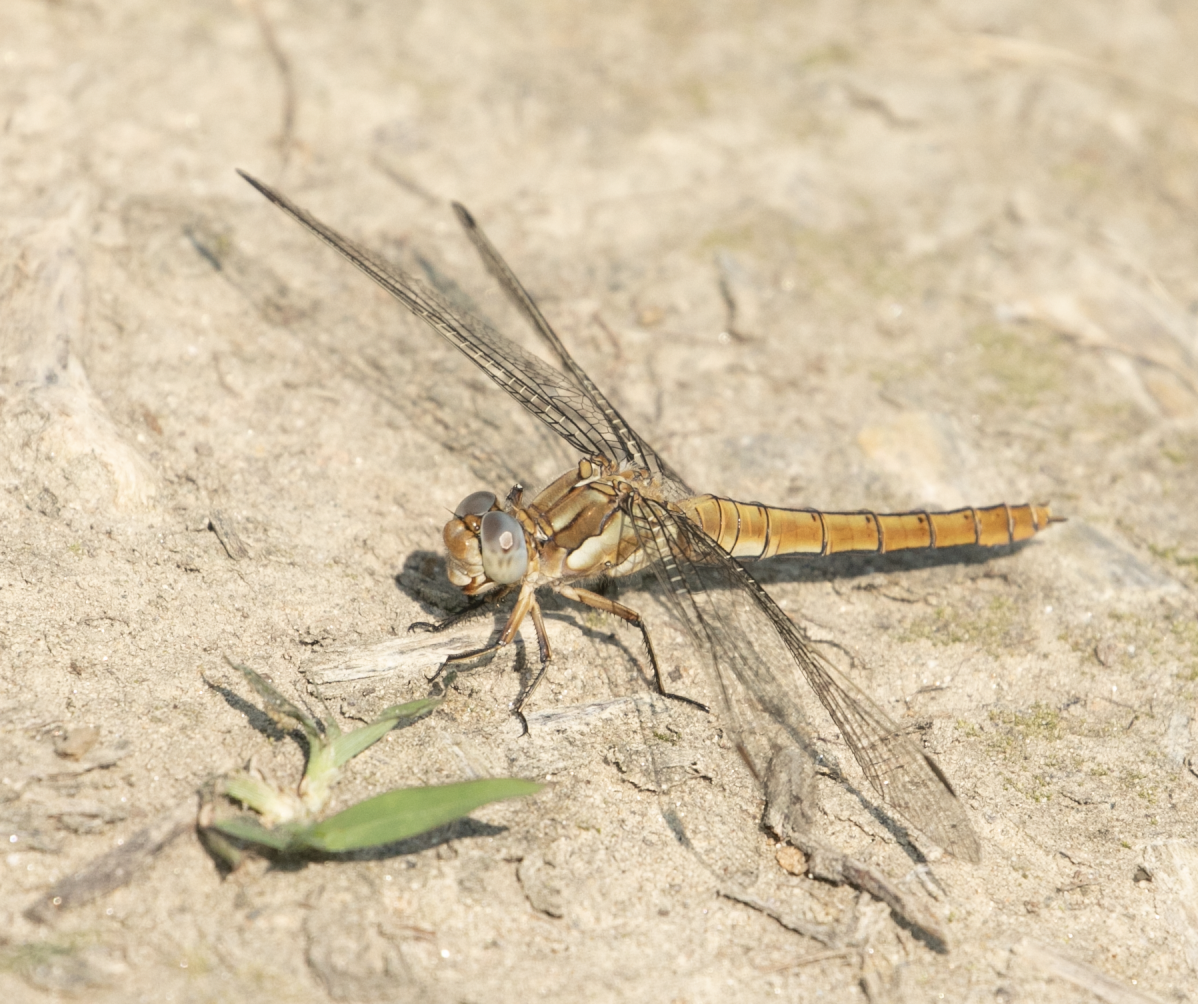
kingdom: Animalia
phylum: Arthropoda
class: Insecta
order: Odonata
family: Libellulidae
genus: Orthetrum
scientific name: Orthetrum brunneum
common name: Southern skimmer
